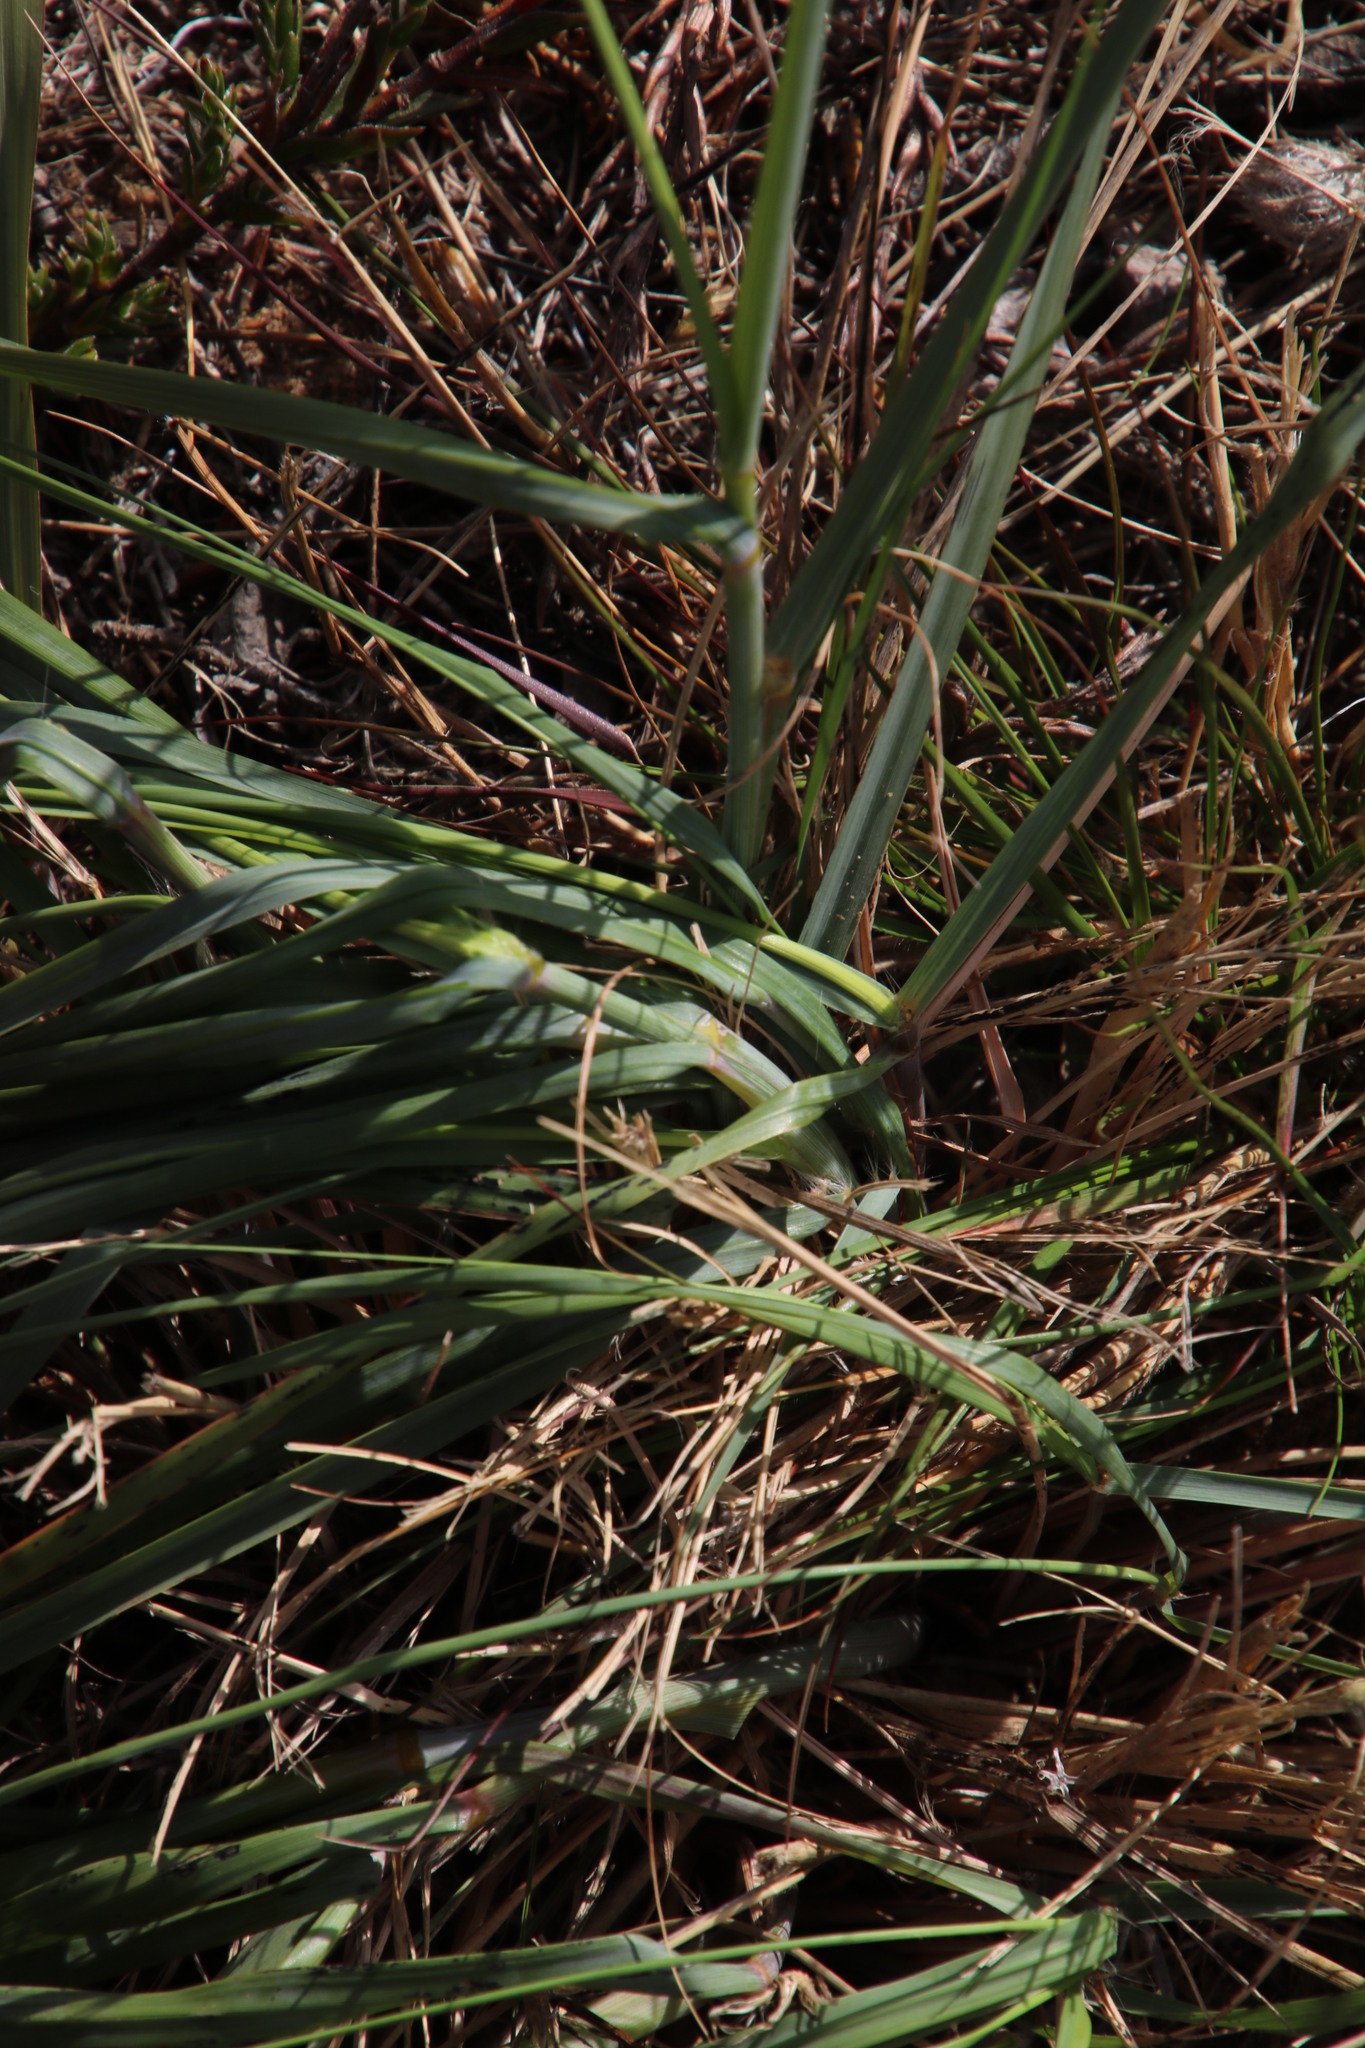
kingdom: Plantae
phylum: Tracheophyta
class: Liliopsida
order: Poales
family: Poaceae
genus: Eragrostis
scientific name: Eragrostis curvula
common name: African love-grass
